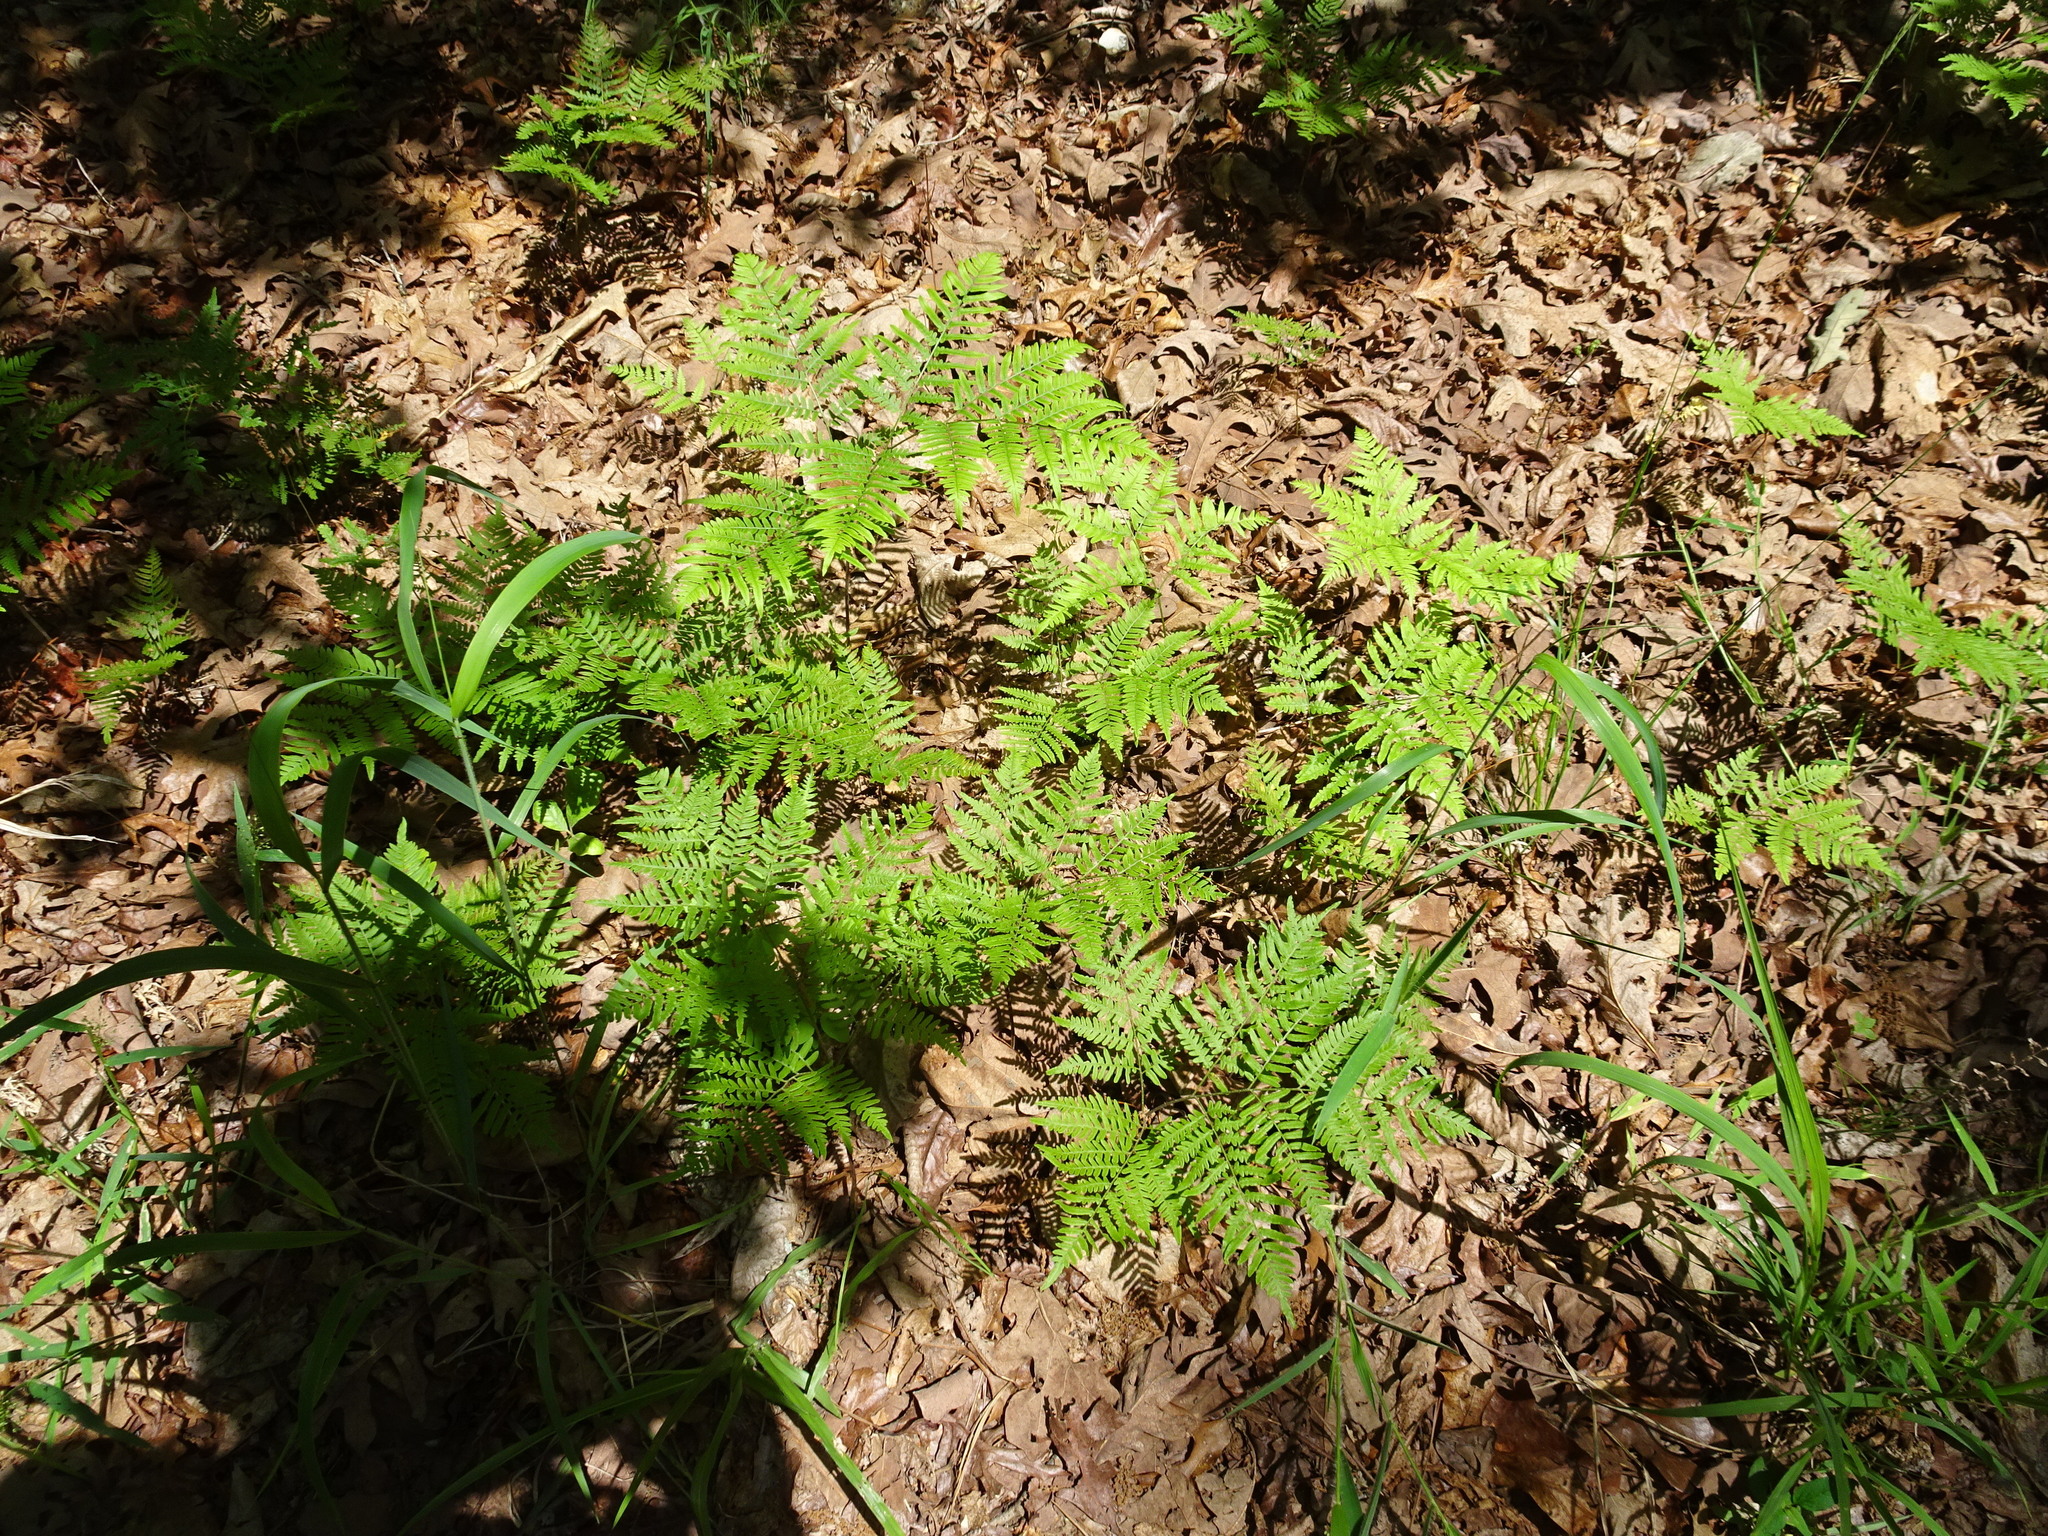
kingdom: Plantae
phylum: Tracheophyta
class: Polypodiopsida
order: Polypodiales
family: Dennstaedtiaceae
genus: Pteridium
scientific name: Pteridium aquilinum
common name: Bracken
